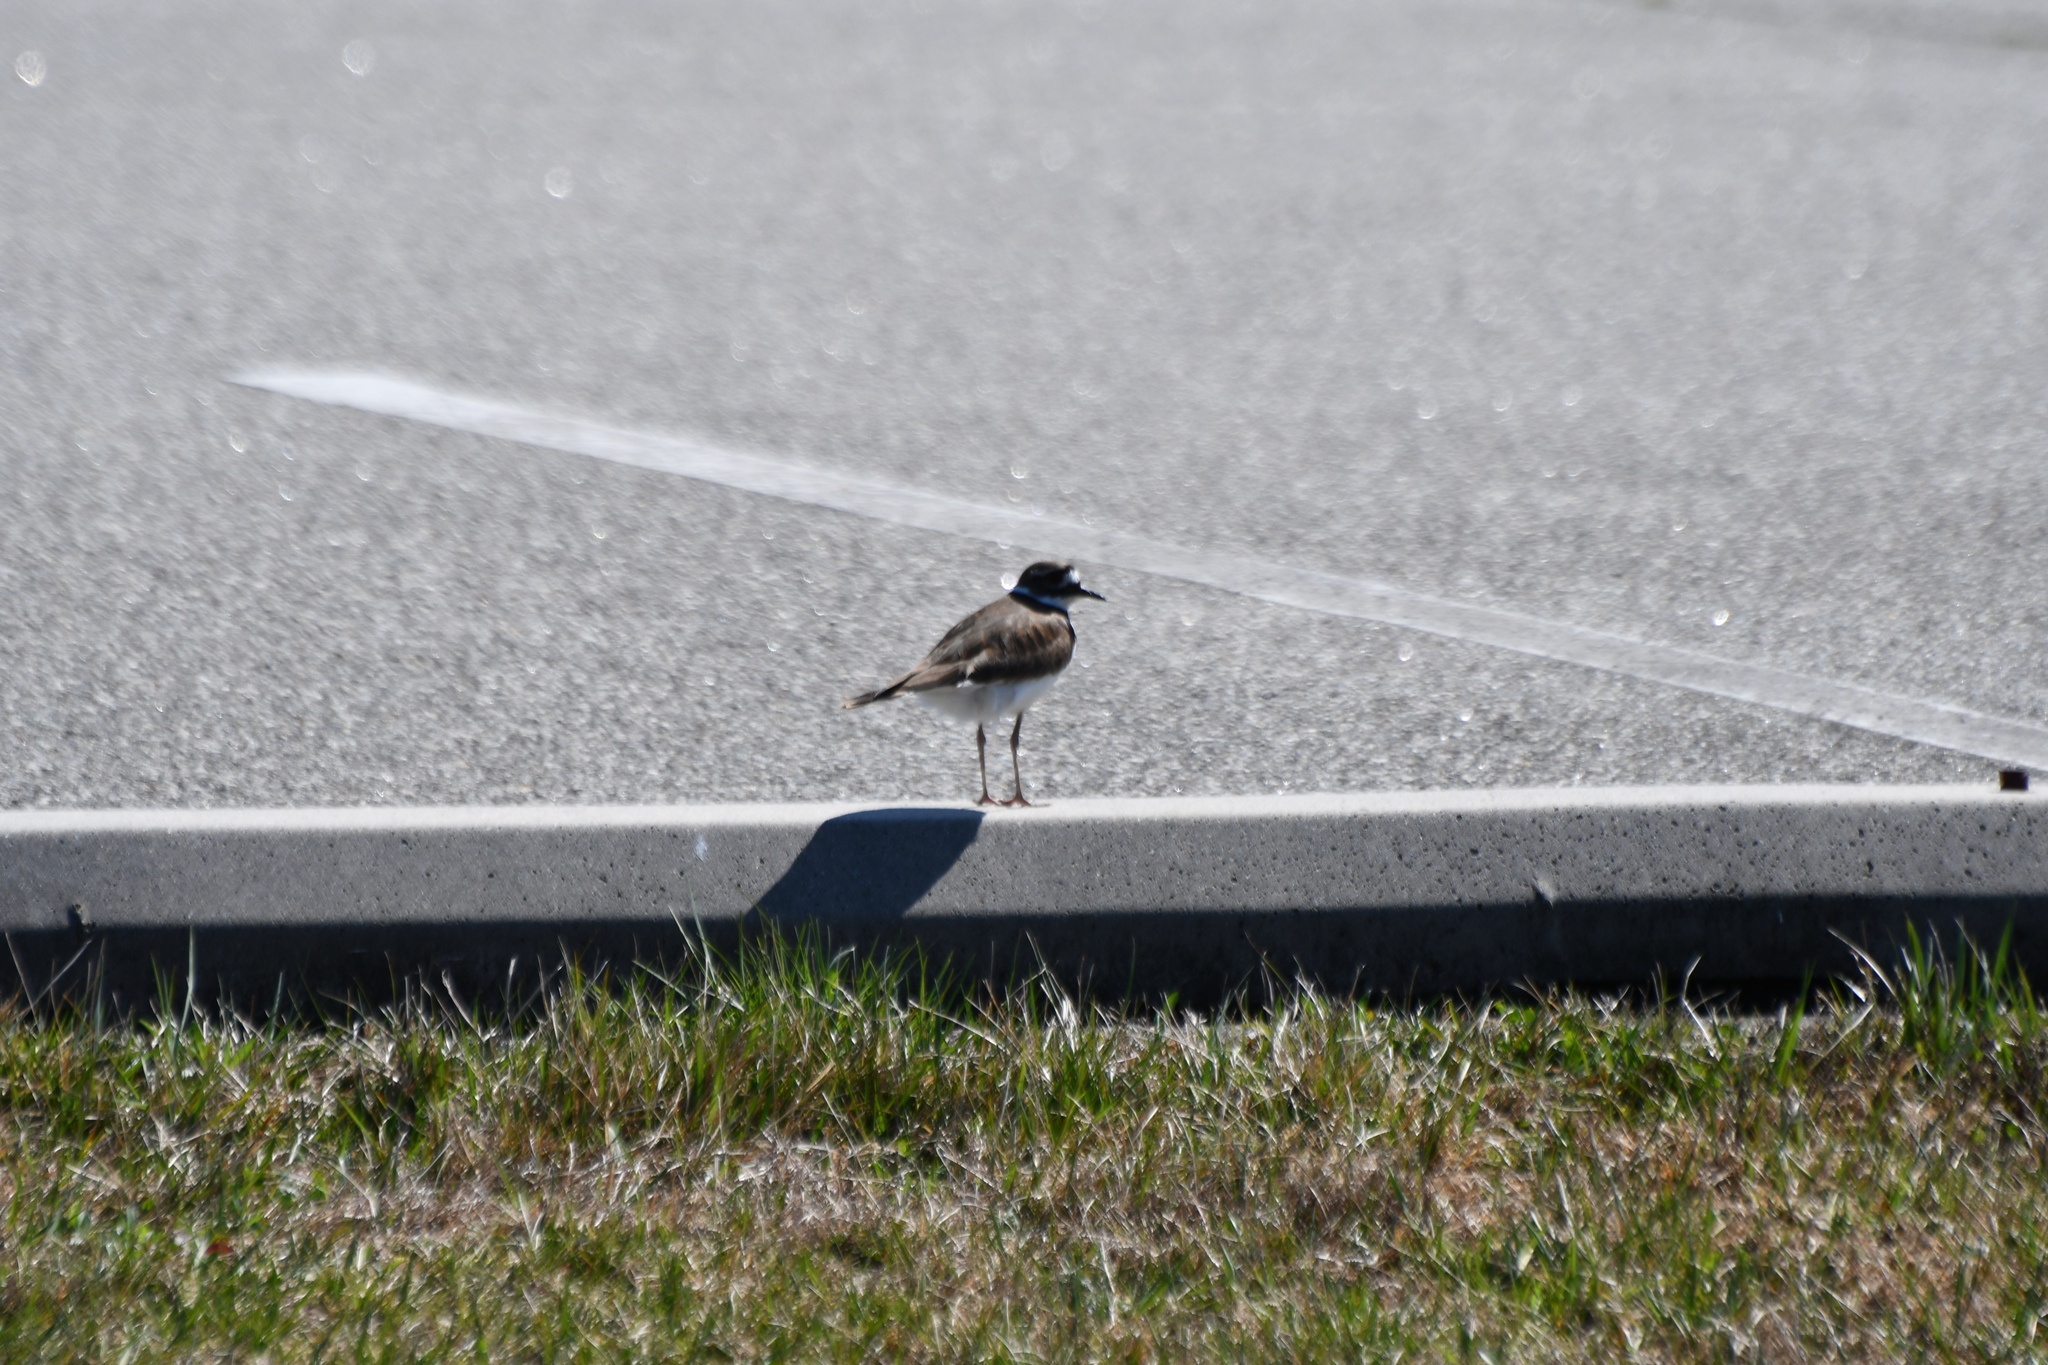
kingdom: Animalia
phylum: Chordata
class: Aves
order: Charadriiformes
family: Charadriidae
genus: Charadrius
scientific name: Charadrius vociferus
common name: Killdeer
